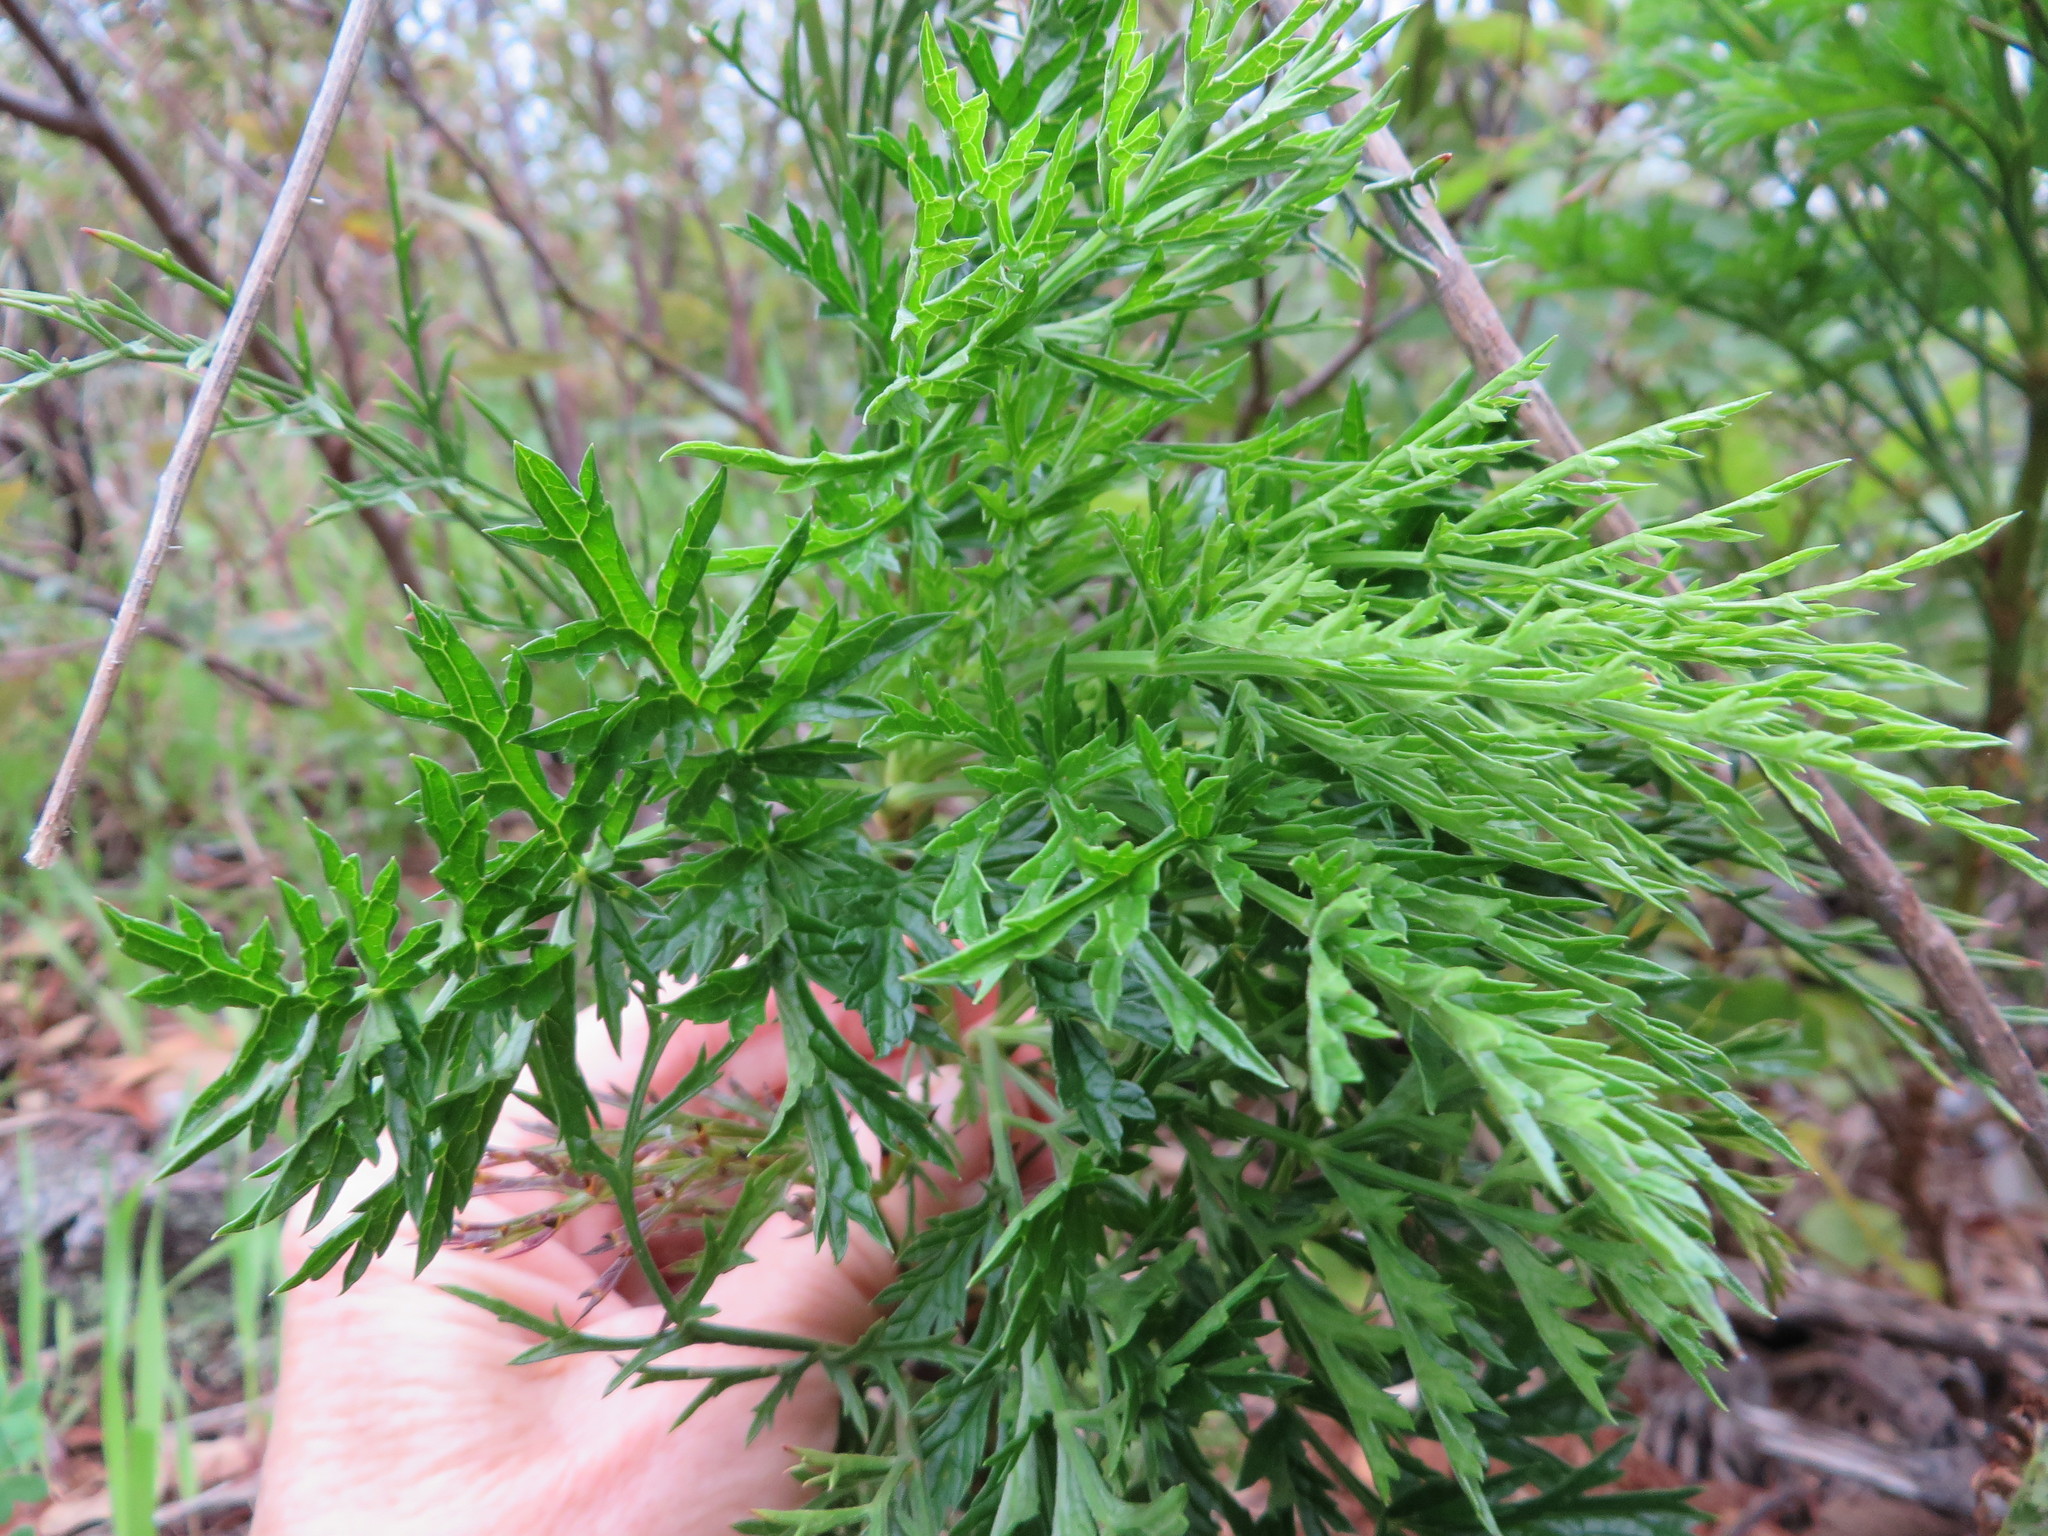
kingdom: Plantae
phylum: Tracheophyta
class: Magnoliopsida
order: Ranunculales
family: Ranunculaceae
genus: Knowltonia
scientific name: Knowltonia tenuifolia
